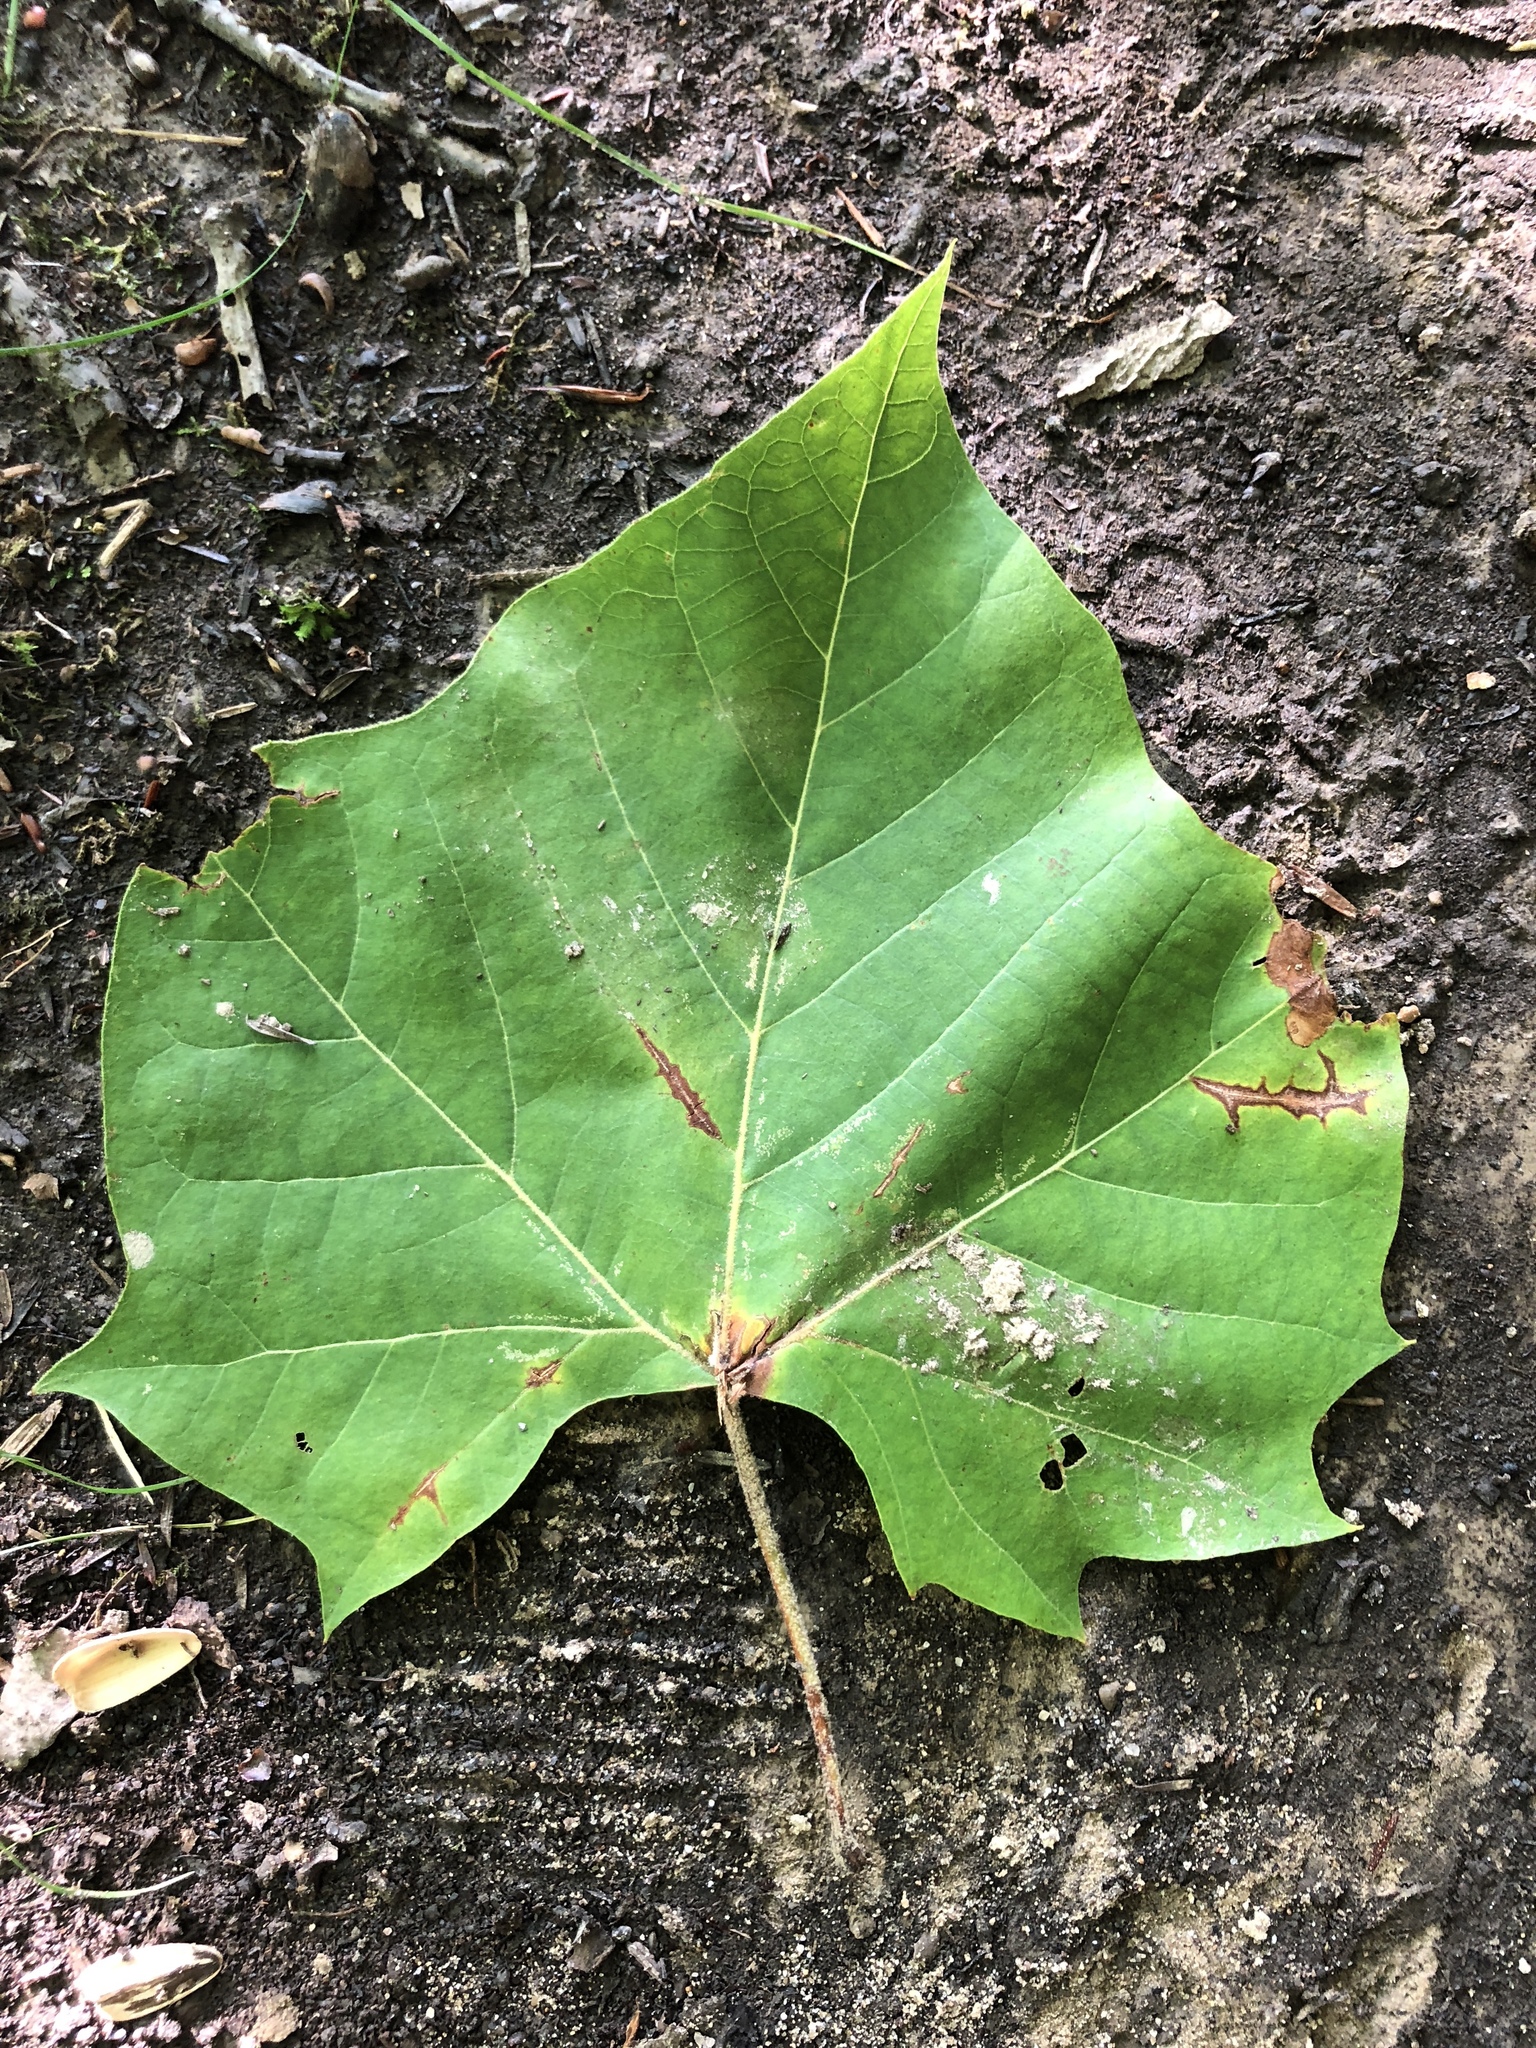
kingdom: Plantae
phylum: Tracheophyta
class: Magnoliopsida
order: Proteales
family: Platanaceae
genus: Platanus
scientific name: Platanus occidentalis
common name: American sycamore
